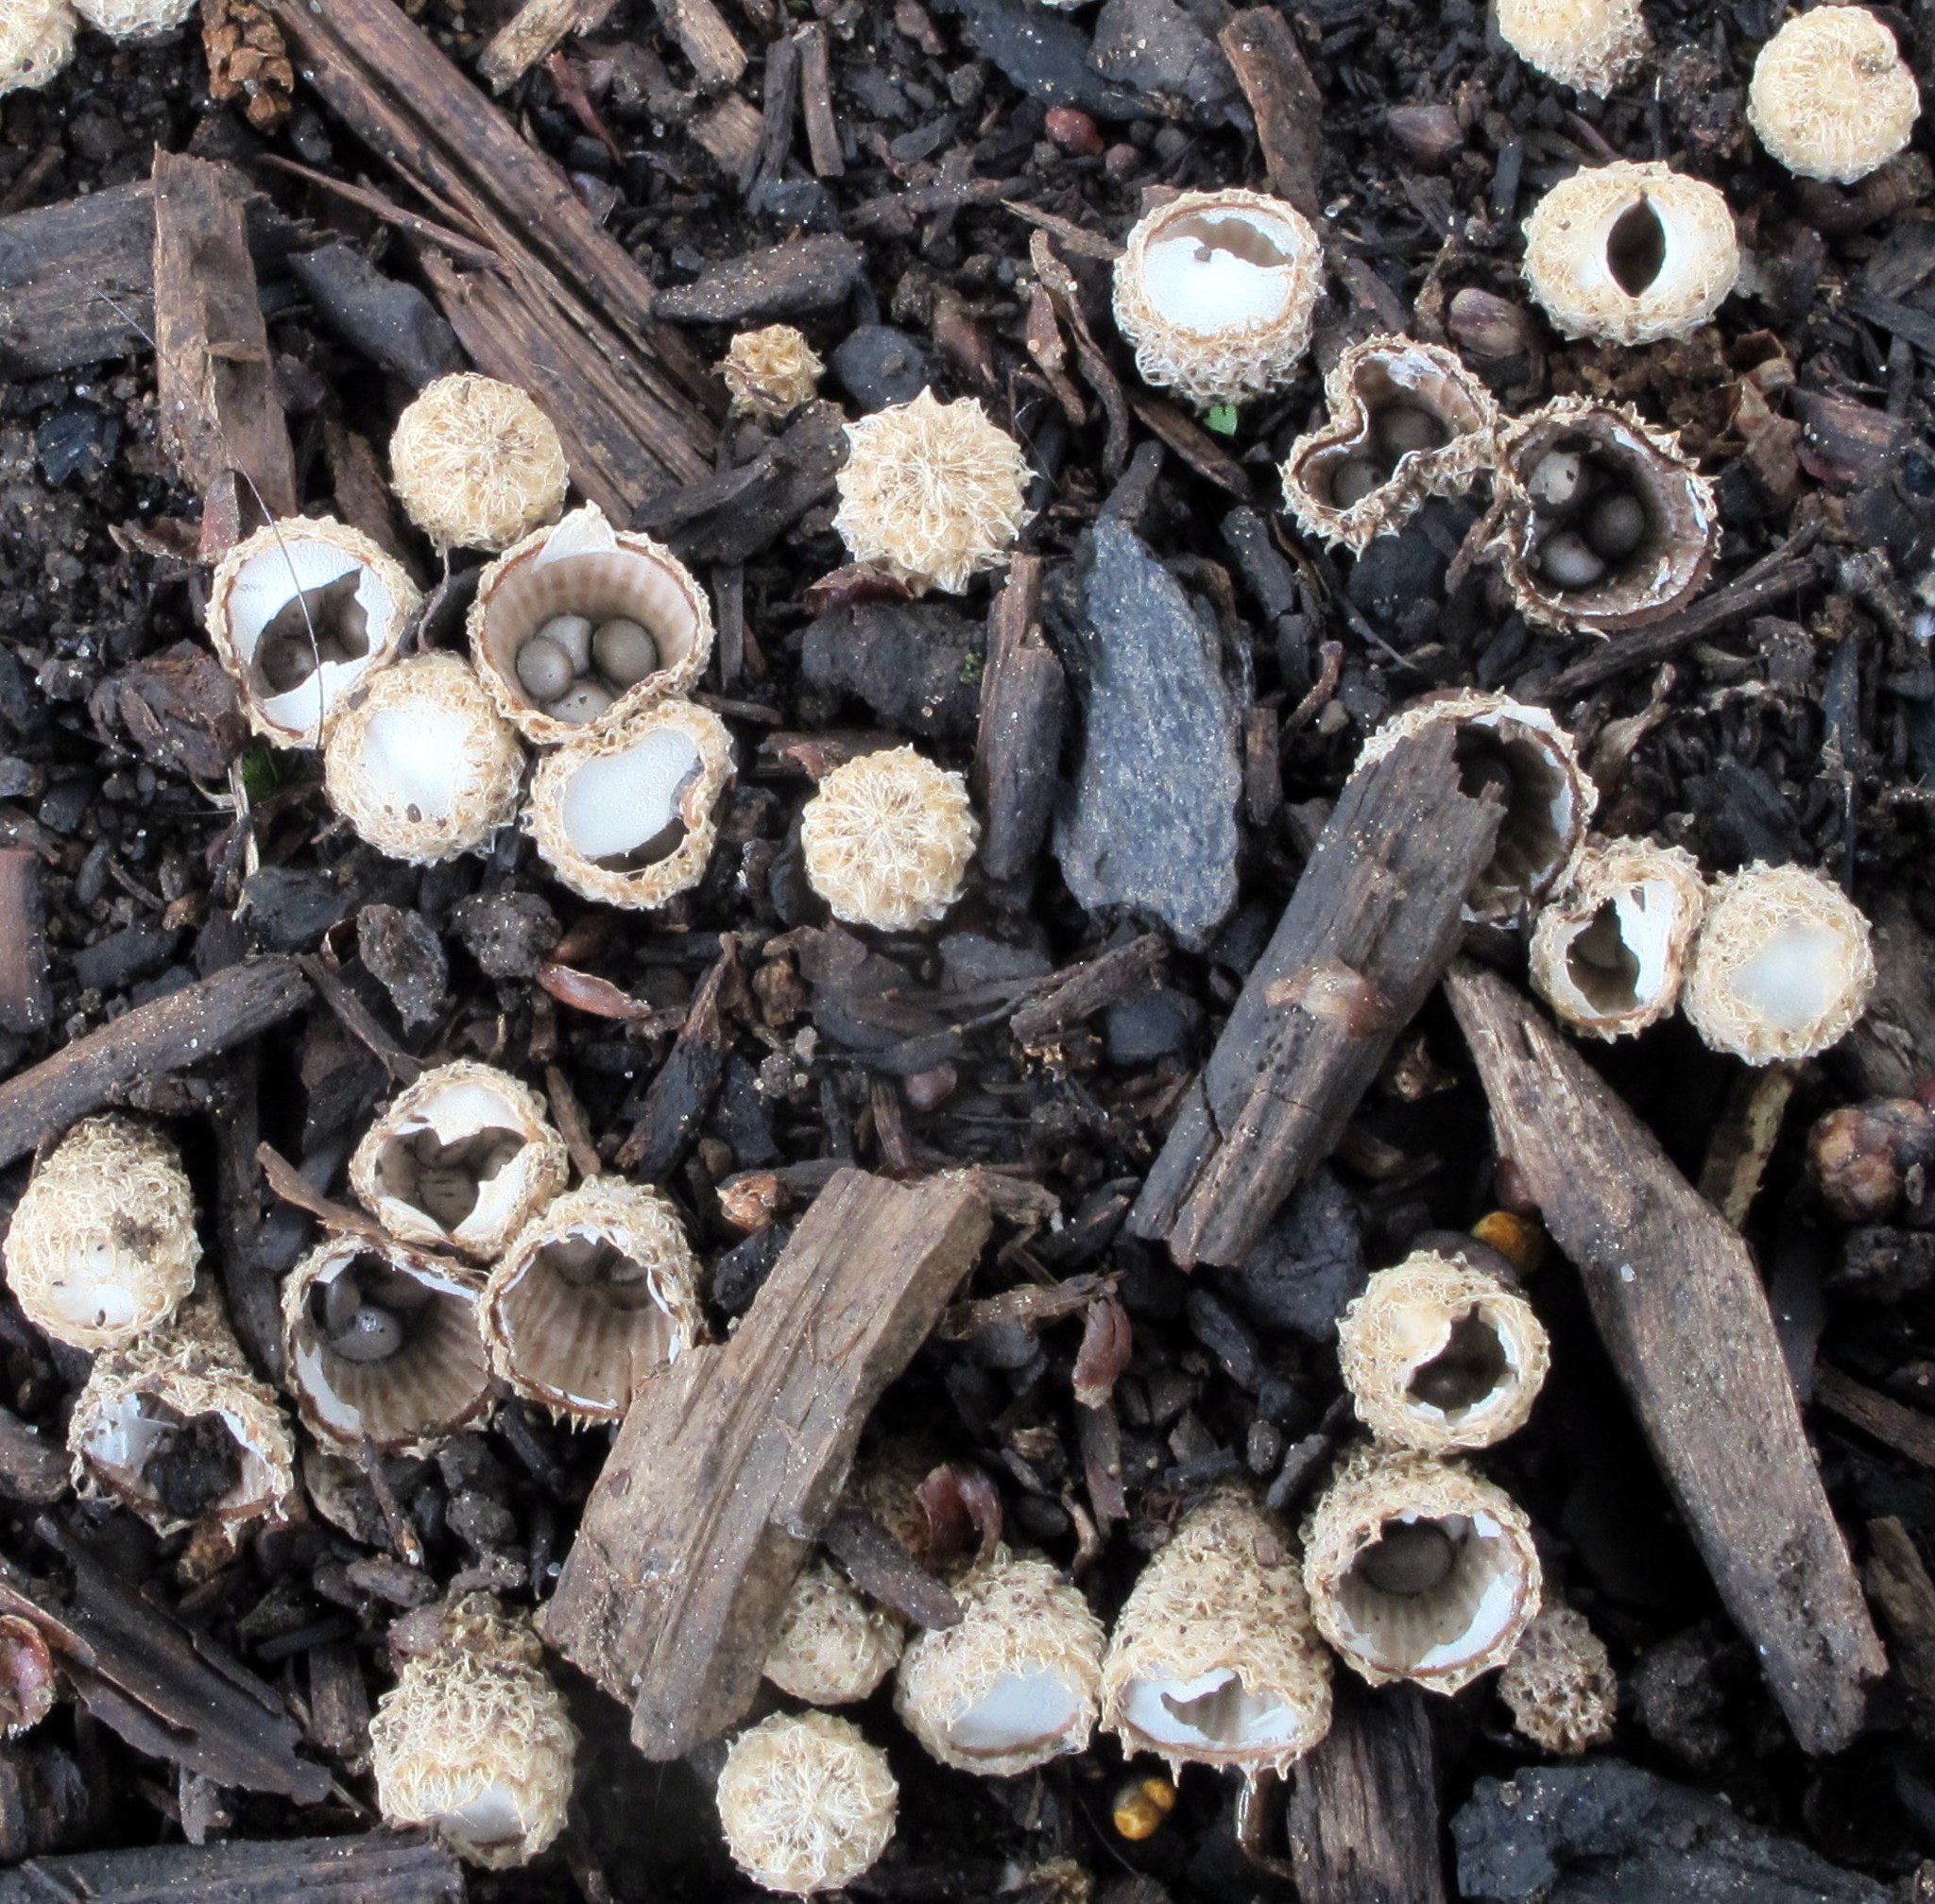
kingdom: Fungi
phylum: Basidiomycota
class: Agaricomycetes
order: Agaricales
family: Agaricaceae
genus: Cyathus
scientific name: Cyathus stercoreus
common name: Dung bird's nest
